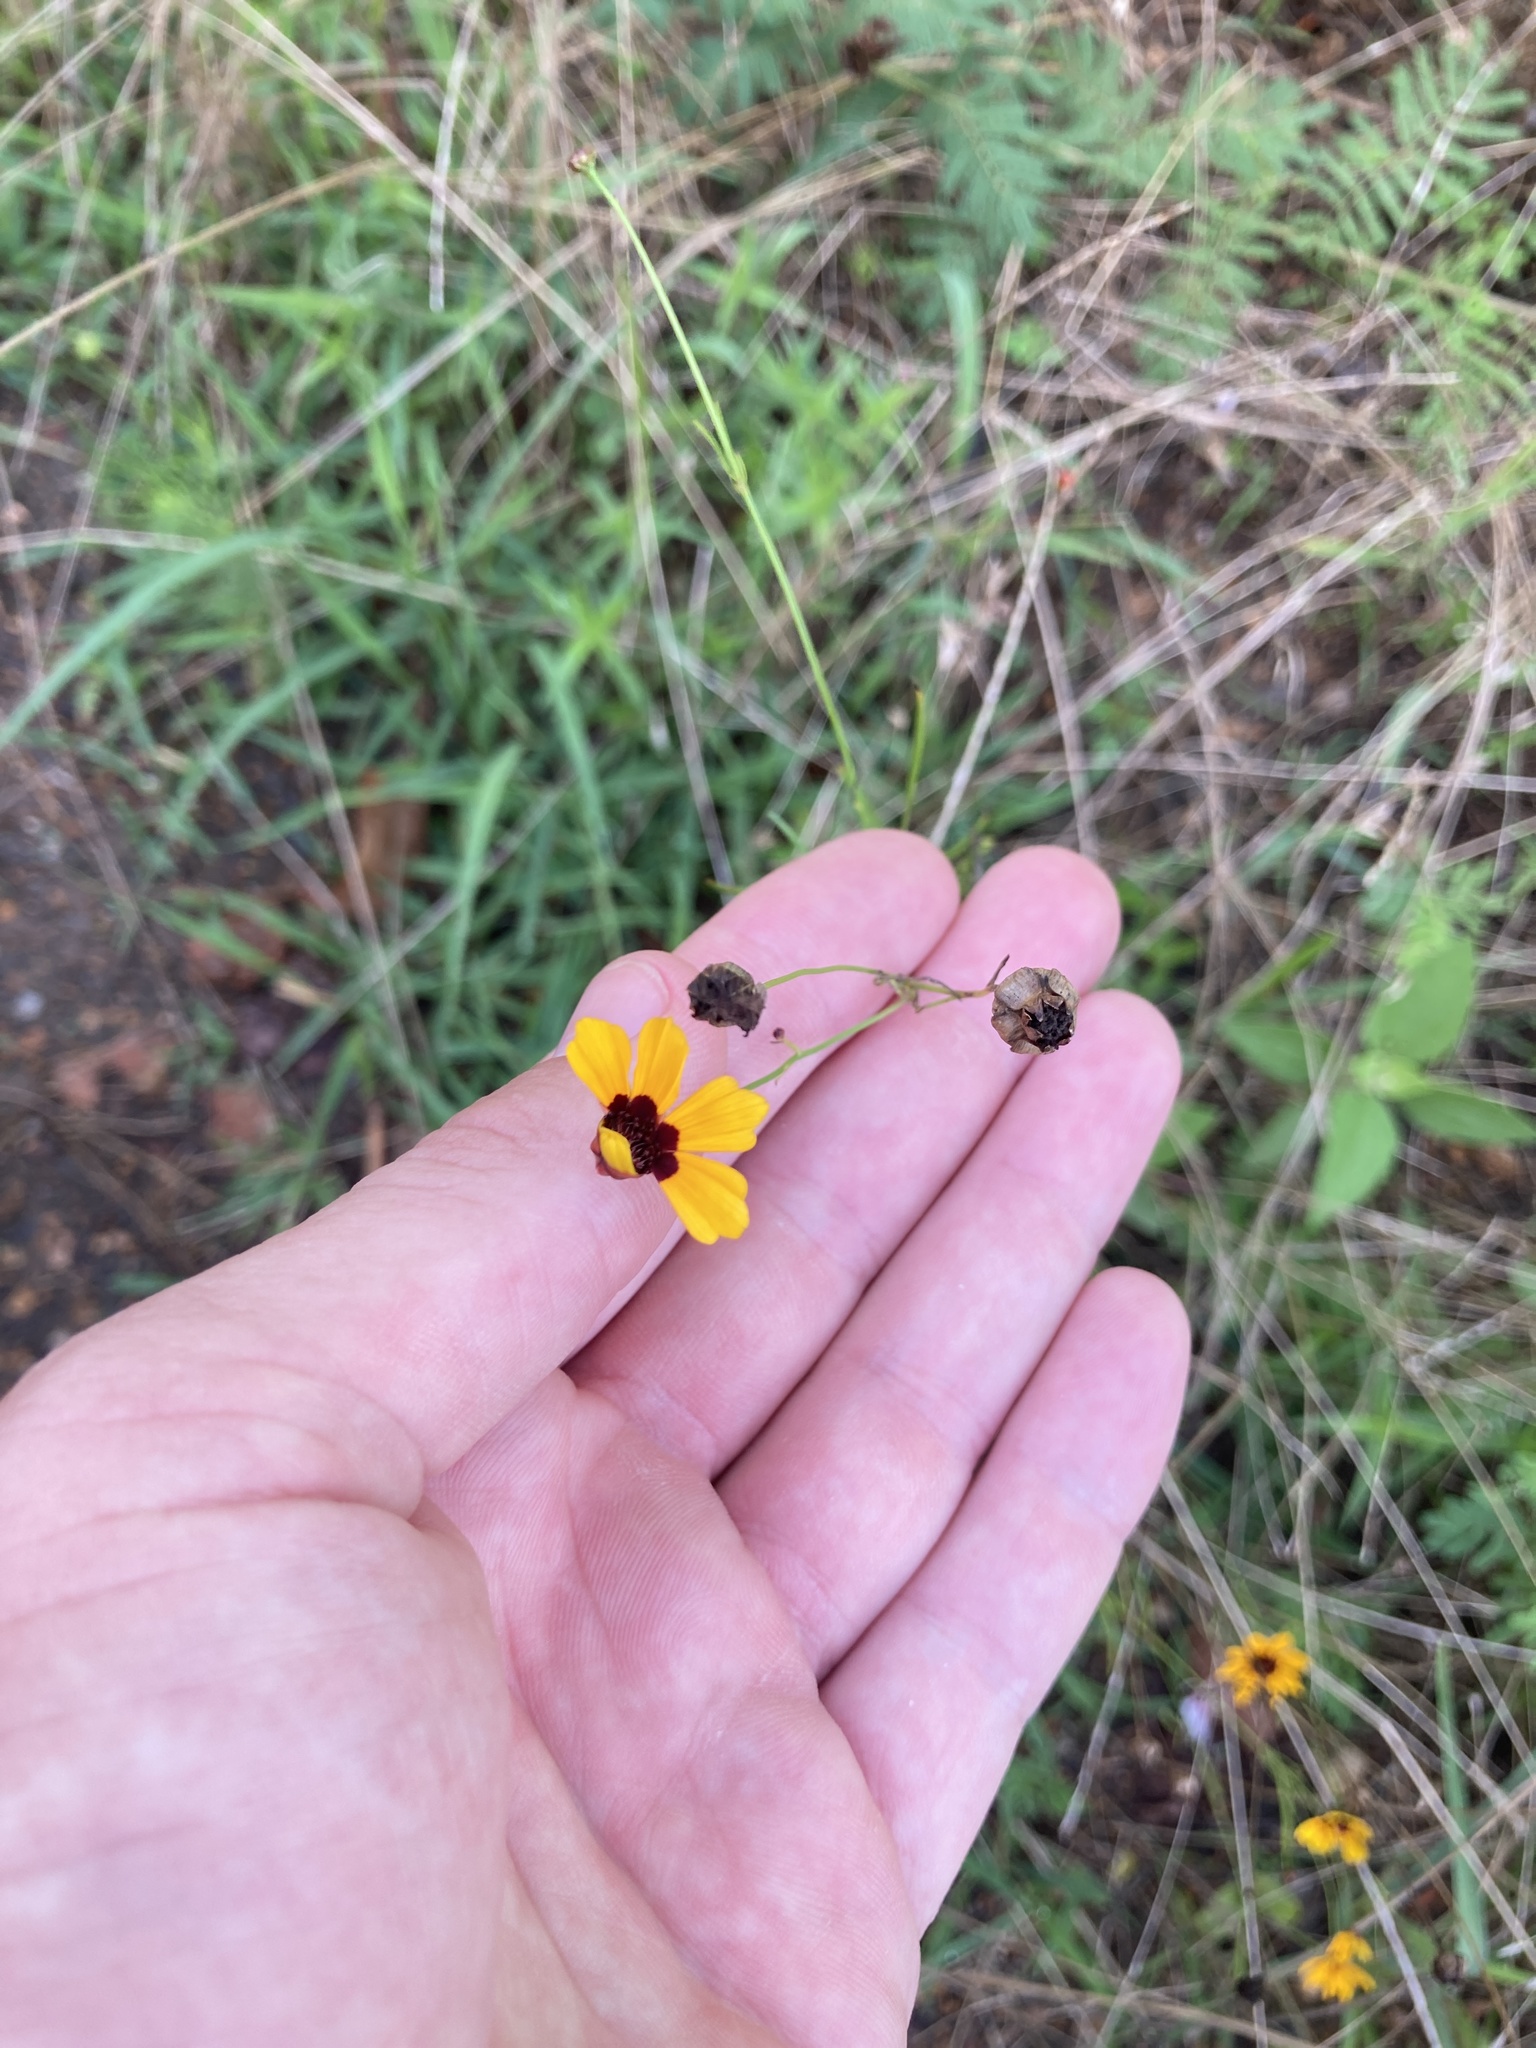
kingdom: Plantae
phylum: Tracheophyta
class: Magnoliopsida
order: Asterales
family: Asteraceae
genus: Coreopsis
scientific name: Coreopsis tinctoria
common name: Garden tickseed
